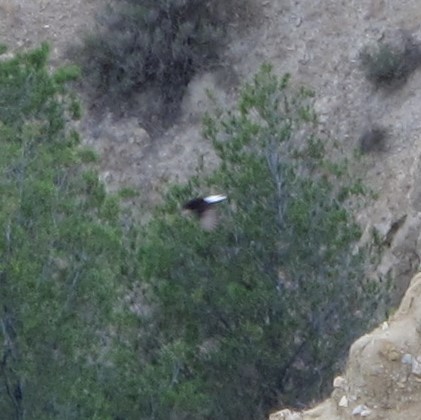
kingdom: Animalia
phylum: Chordata
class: Aves
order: Passeriformes
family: Muscicapidae
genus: Oenanthe
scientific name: Oenanthe leucura
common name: Black wheatear
